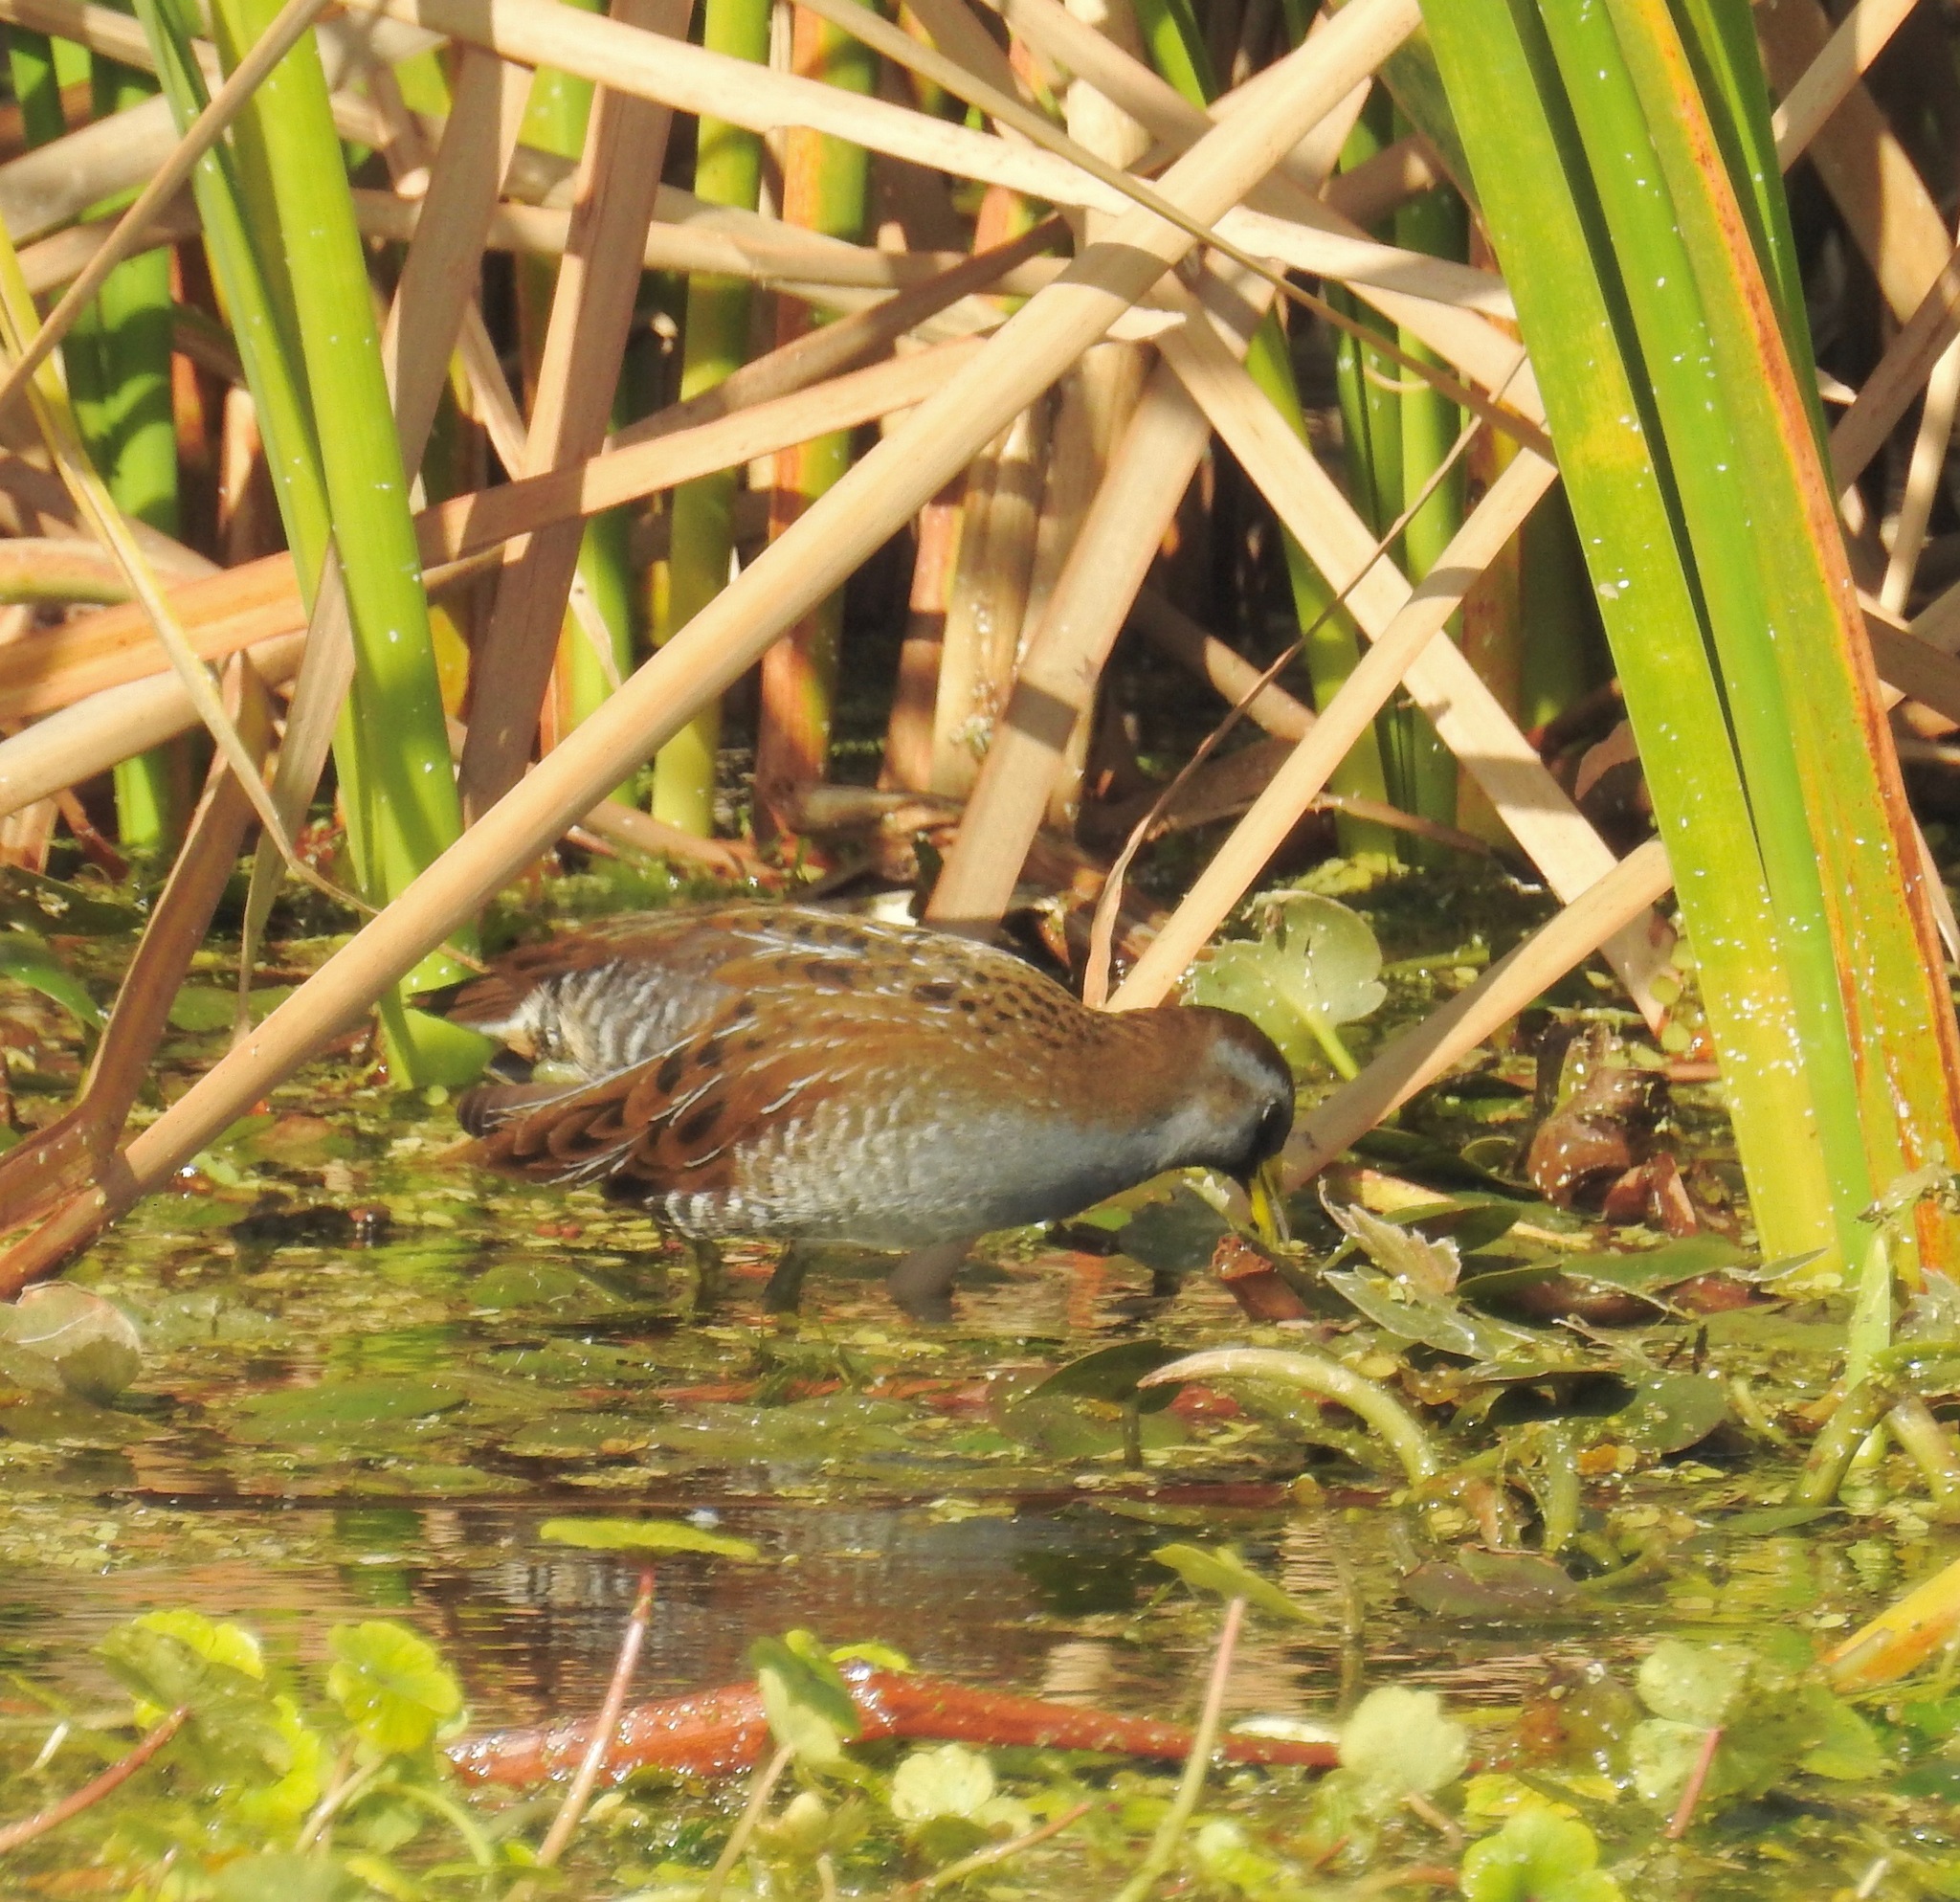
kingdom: Animalia
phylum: Chordata
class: Aves
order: Gruiformes
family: Rallidae
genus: Porzana
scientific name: Porzana carolina
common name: Sora
